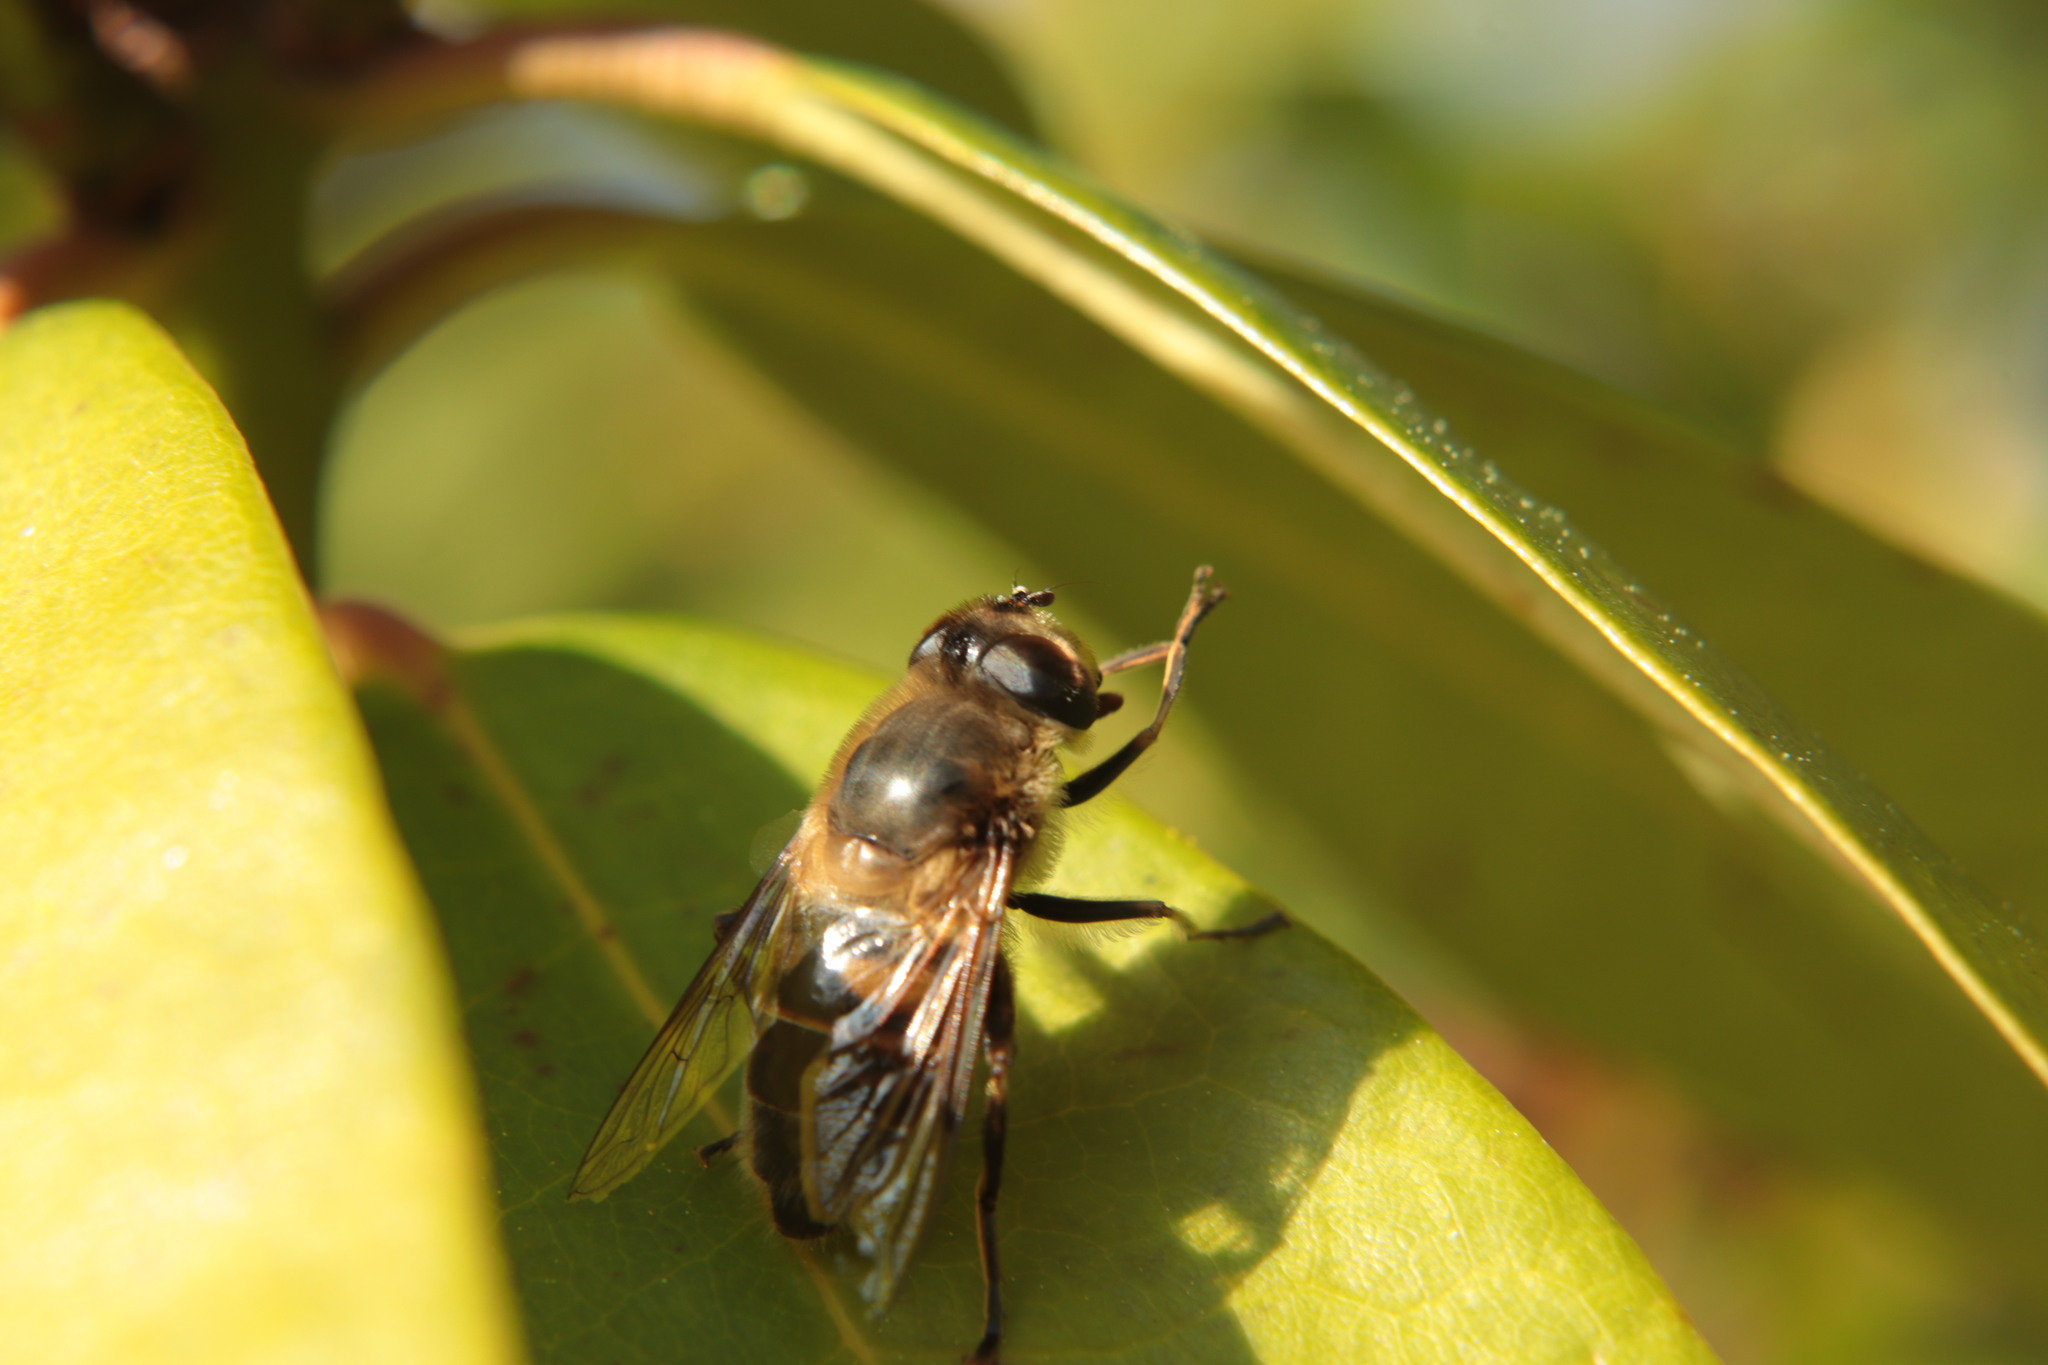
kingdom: Animalia
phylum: Arthropoda
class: Insecta
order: Diptera
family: Syrphidae
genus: Eristalis
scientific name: Eristalis tenax
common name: Drone fly
